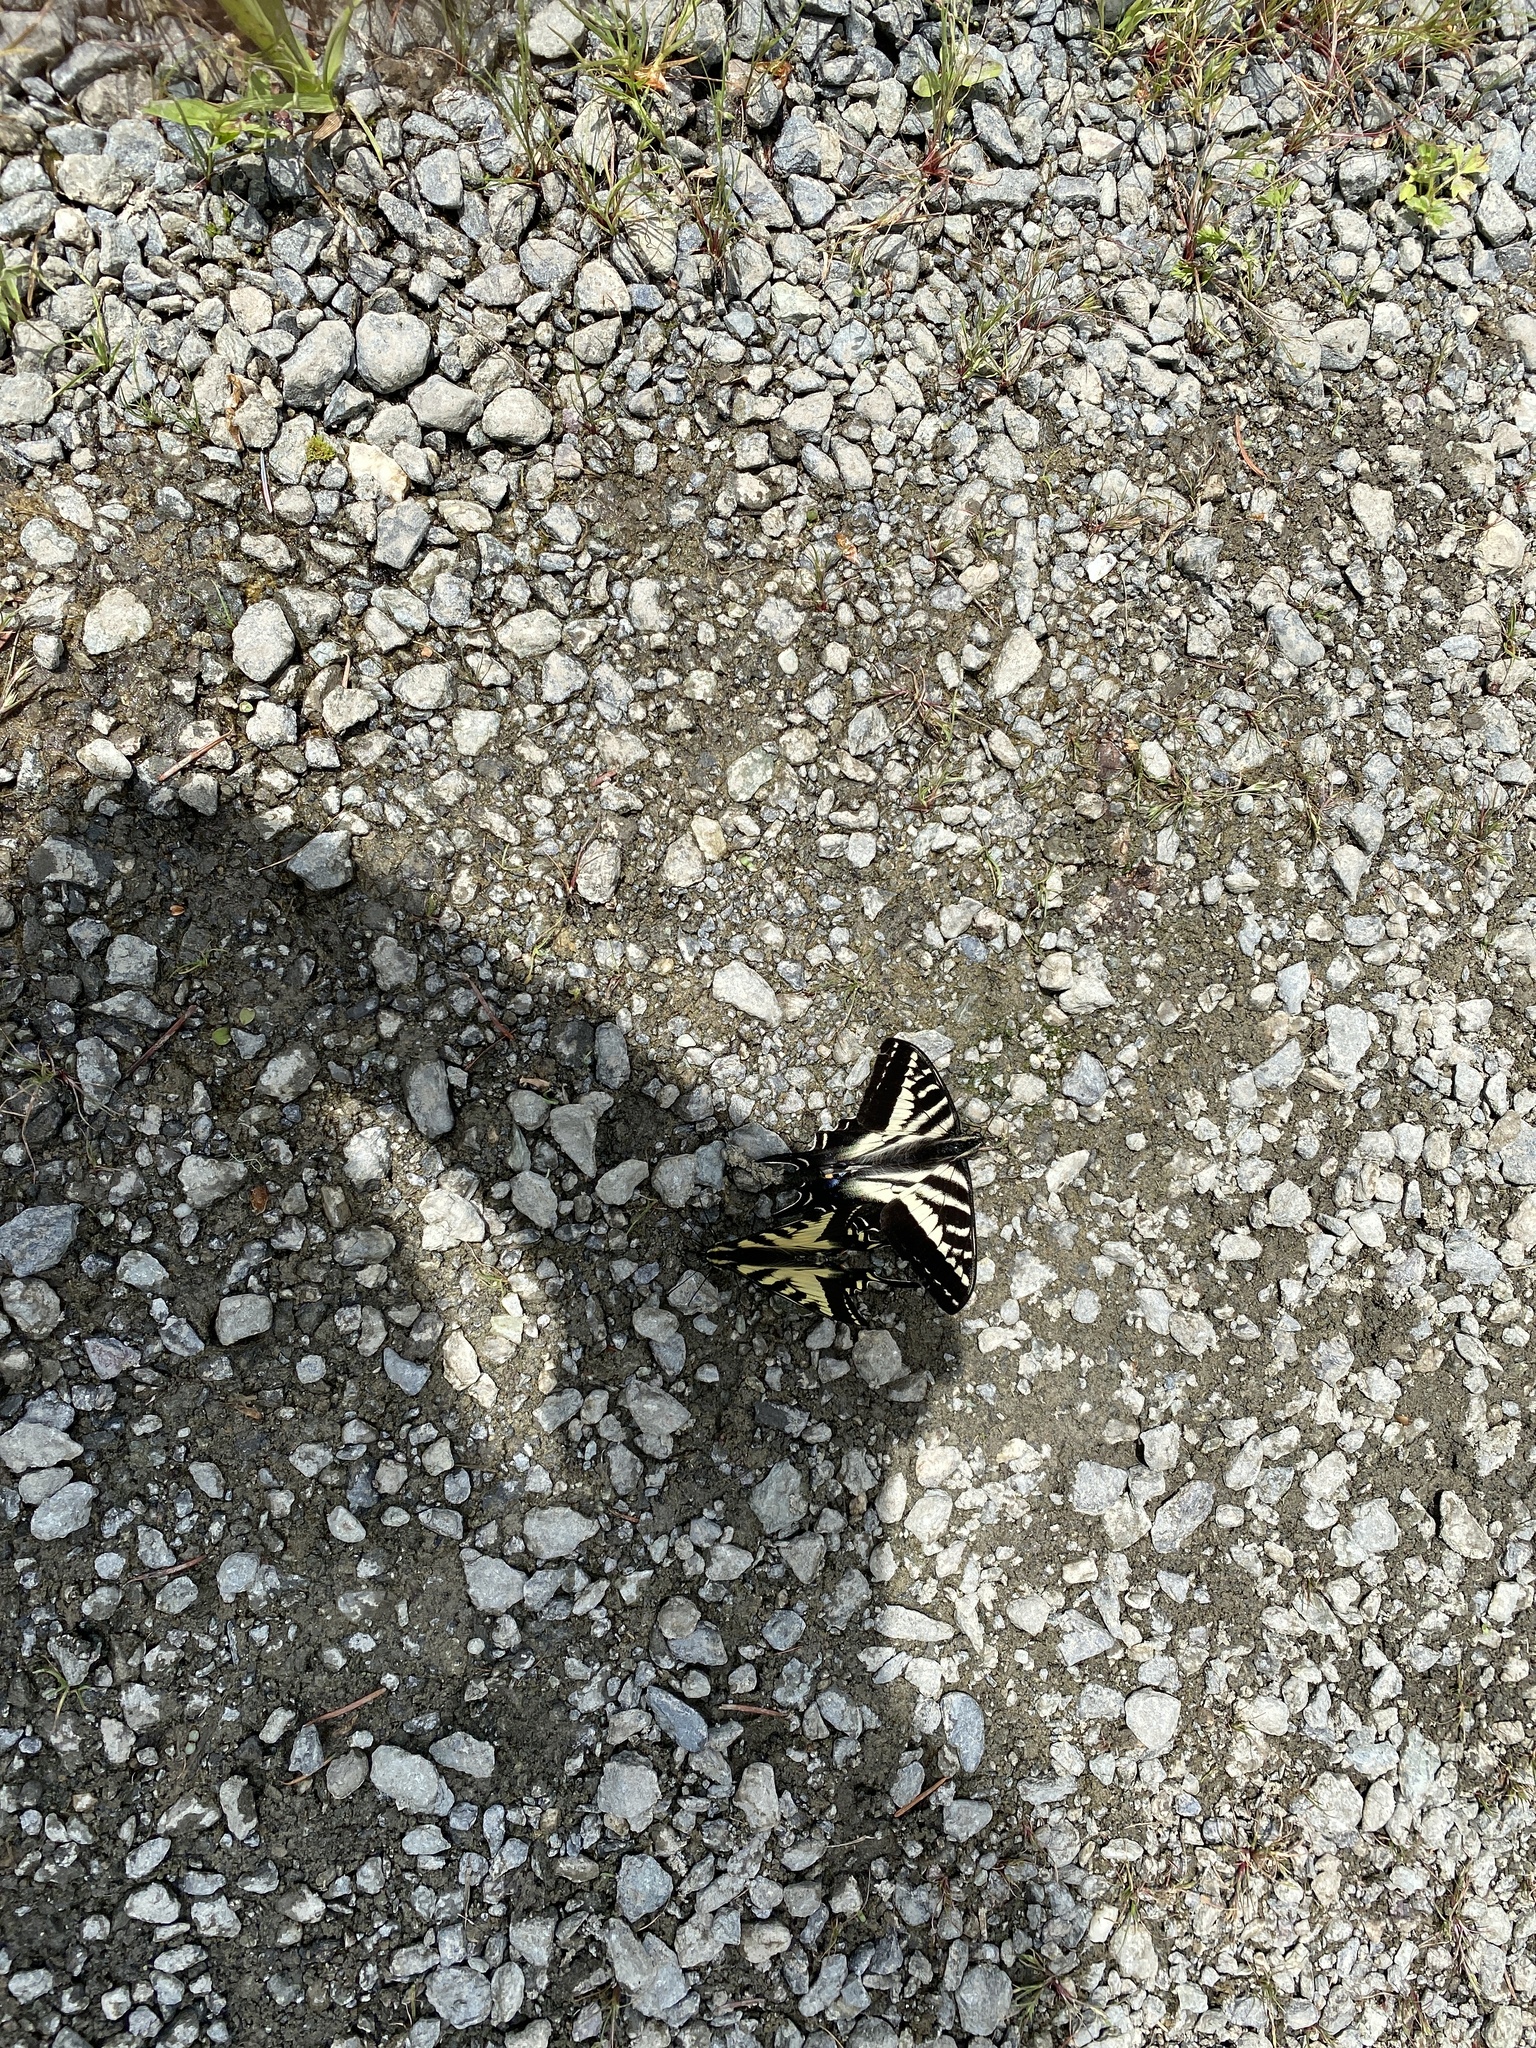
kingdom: Animalia
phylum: Arthropoda
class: Insecta
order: Lepidoptera
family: Papilionidae
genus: Papilio
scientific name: Papilio eurymedon
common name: Pale tiger swallowtail
